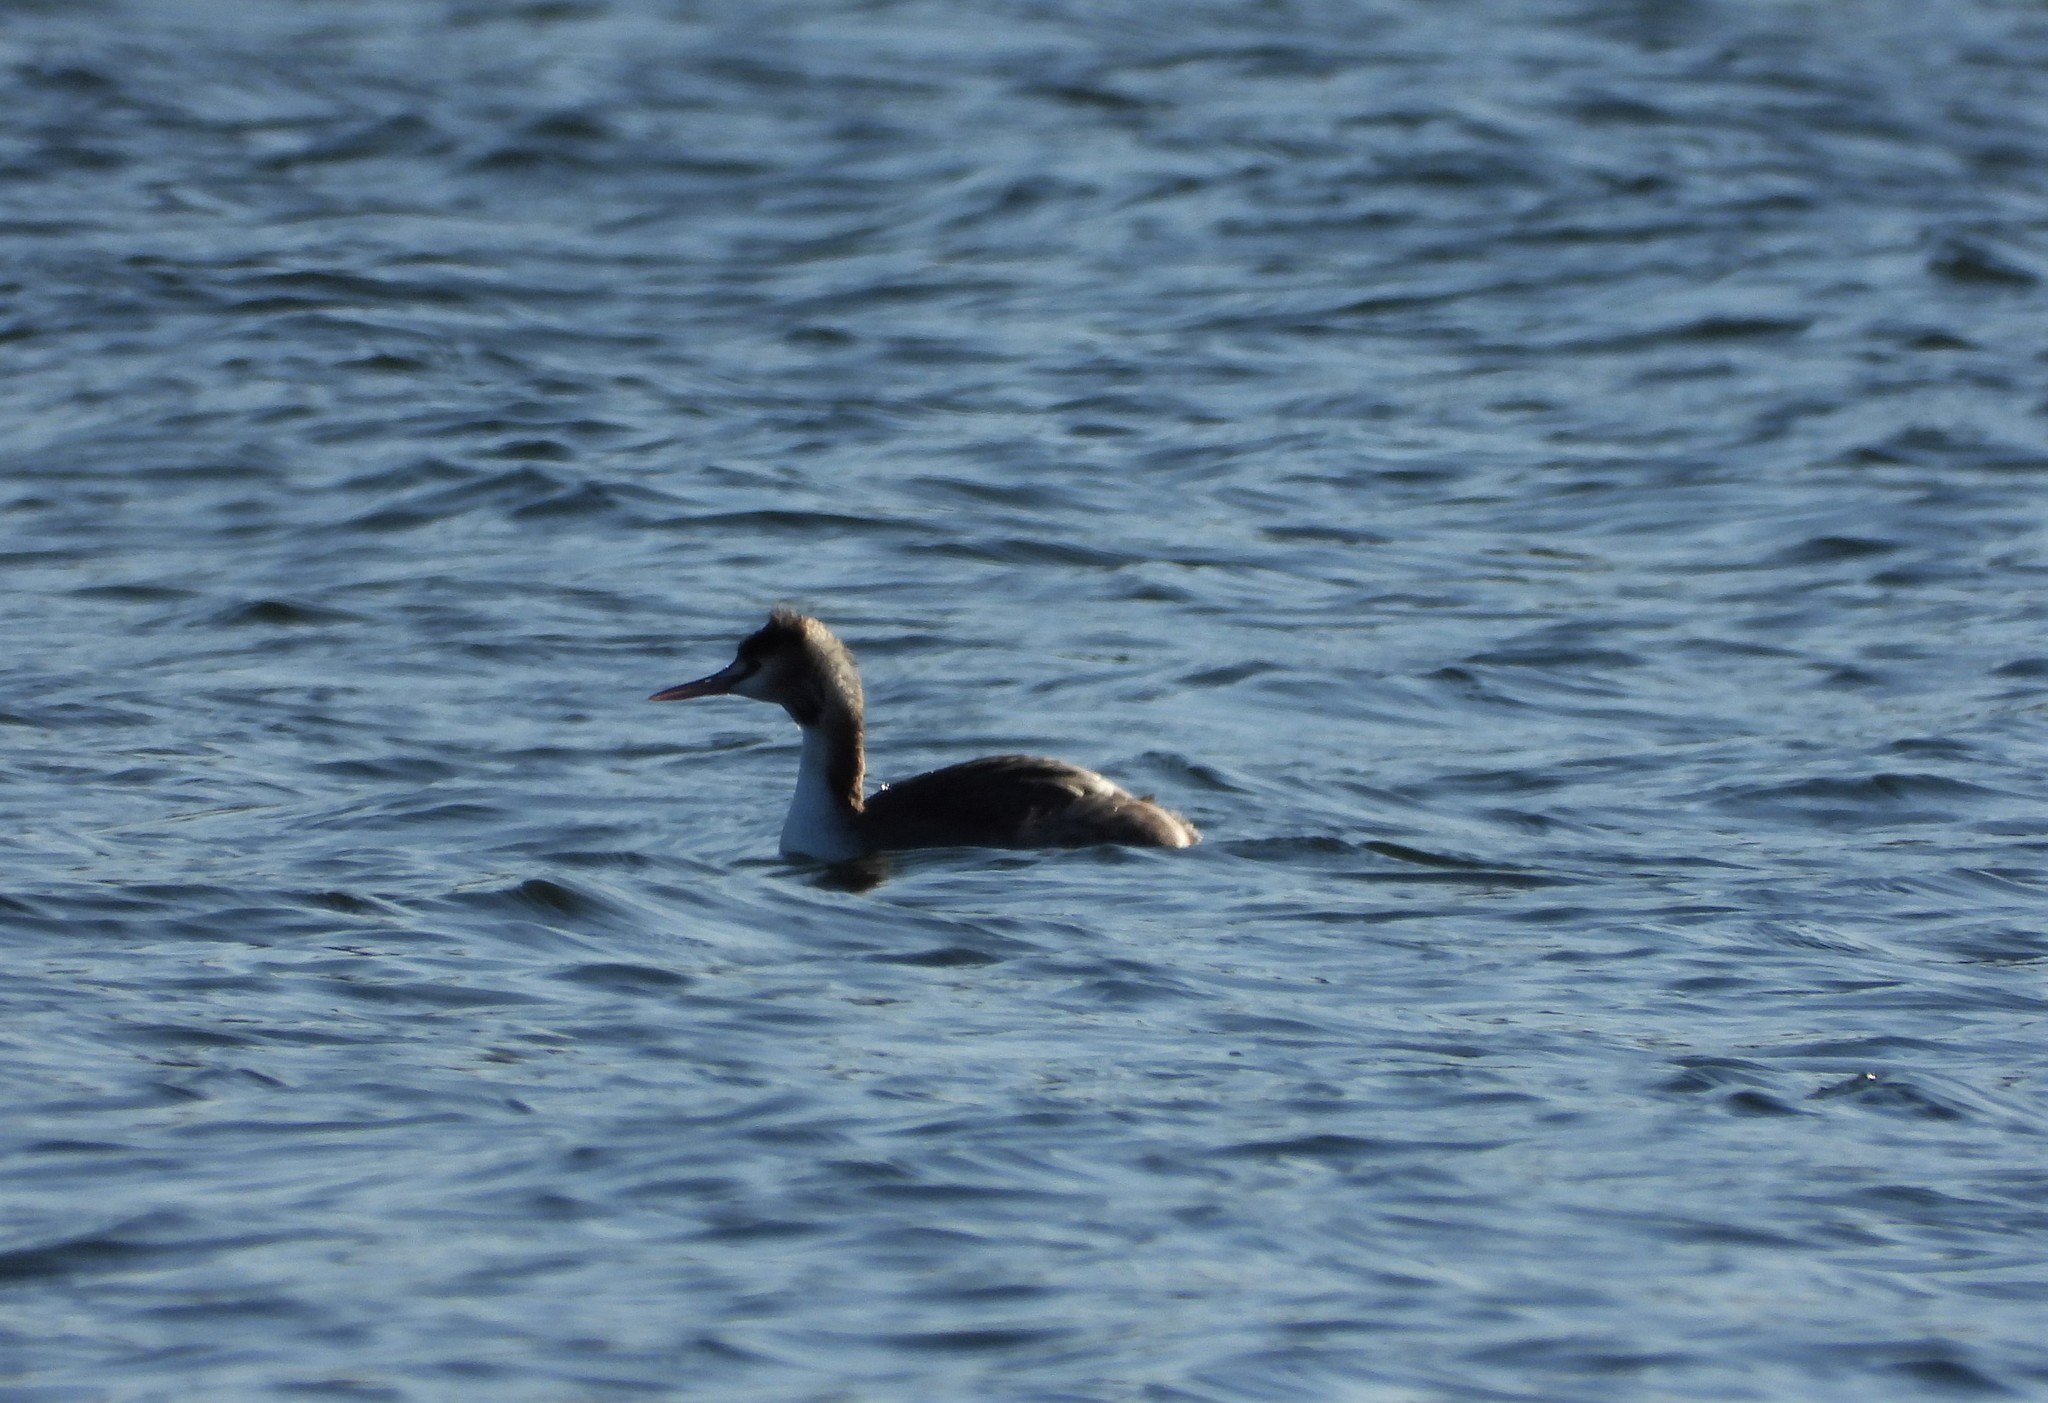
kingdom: Animalia
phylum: Chordata
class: Aves
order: Podicipediformes
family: Podicipedidae
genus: Podiceps
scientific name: Podiceps cristatus
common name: Great crested grebe
